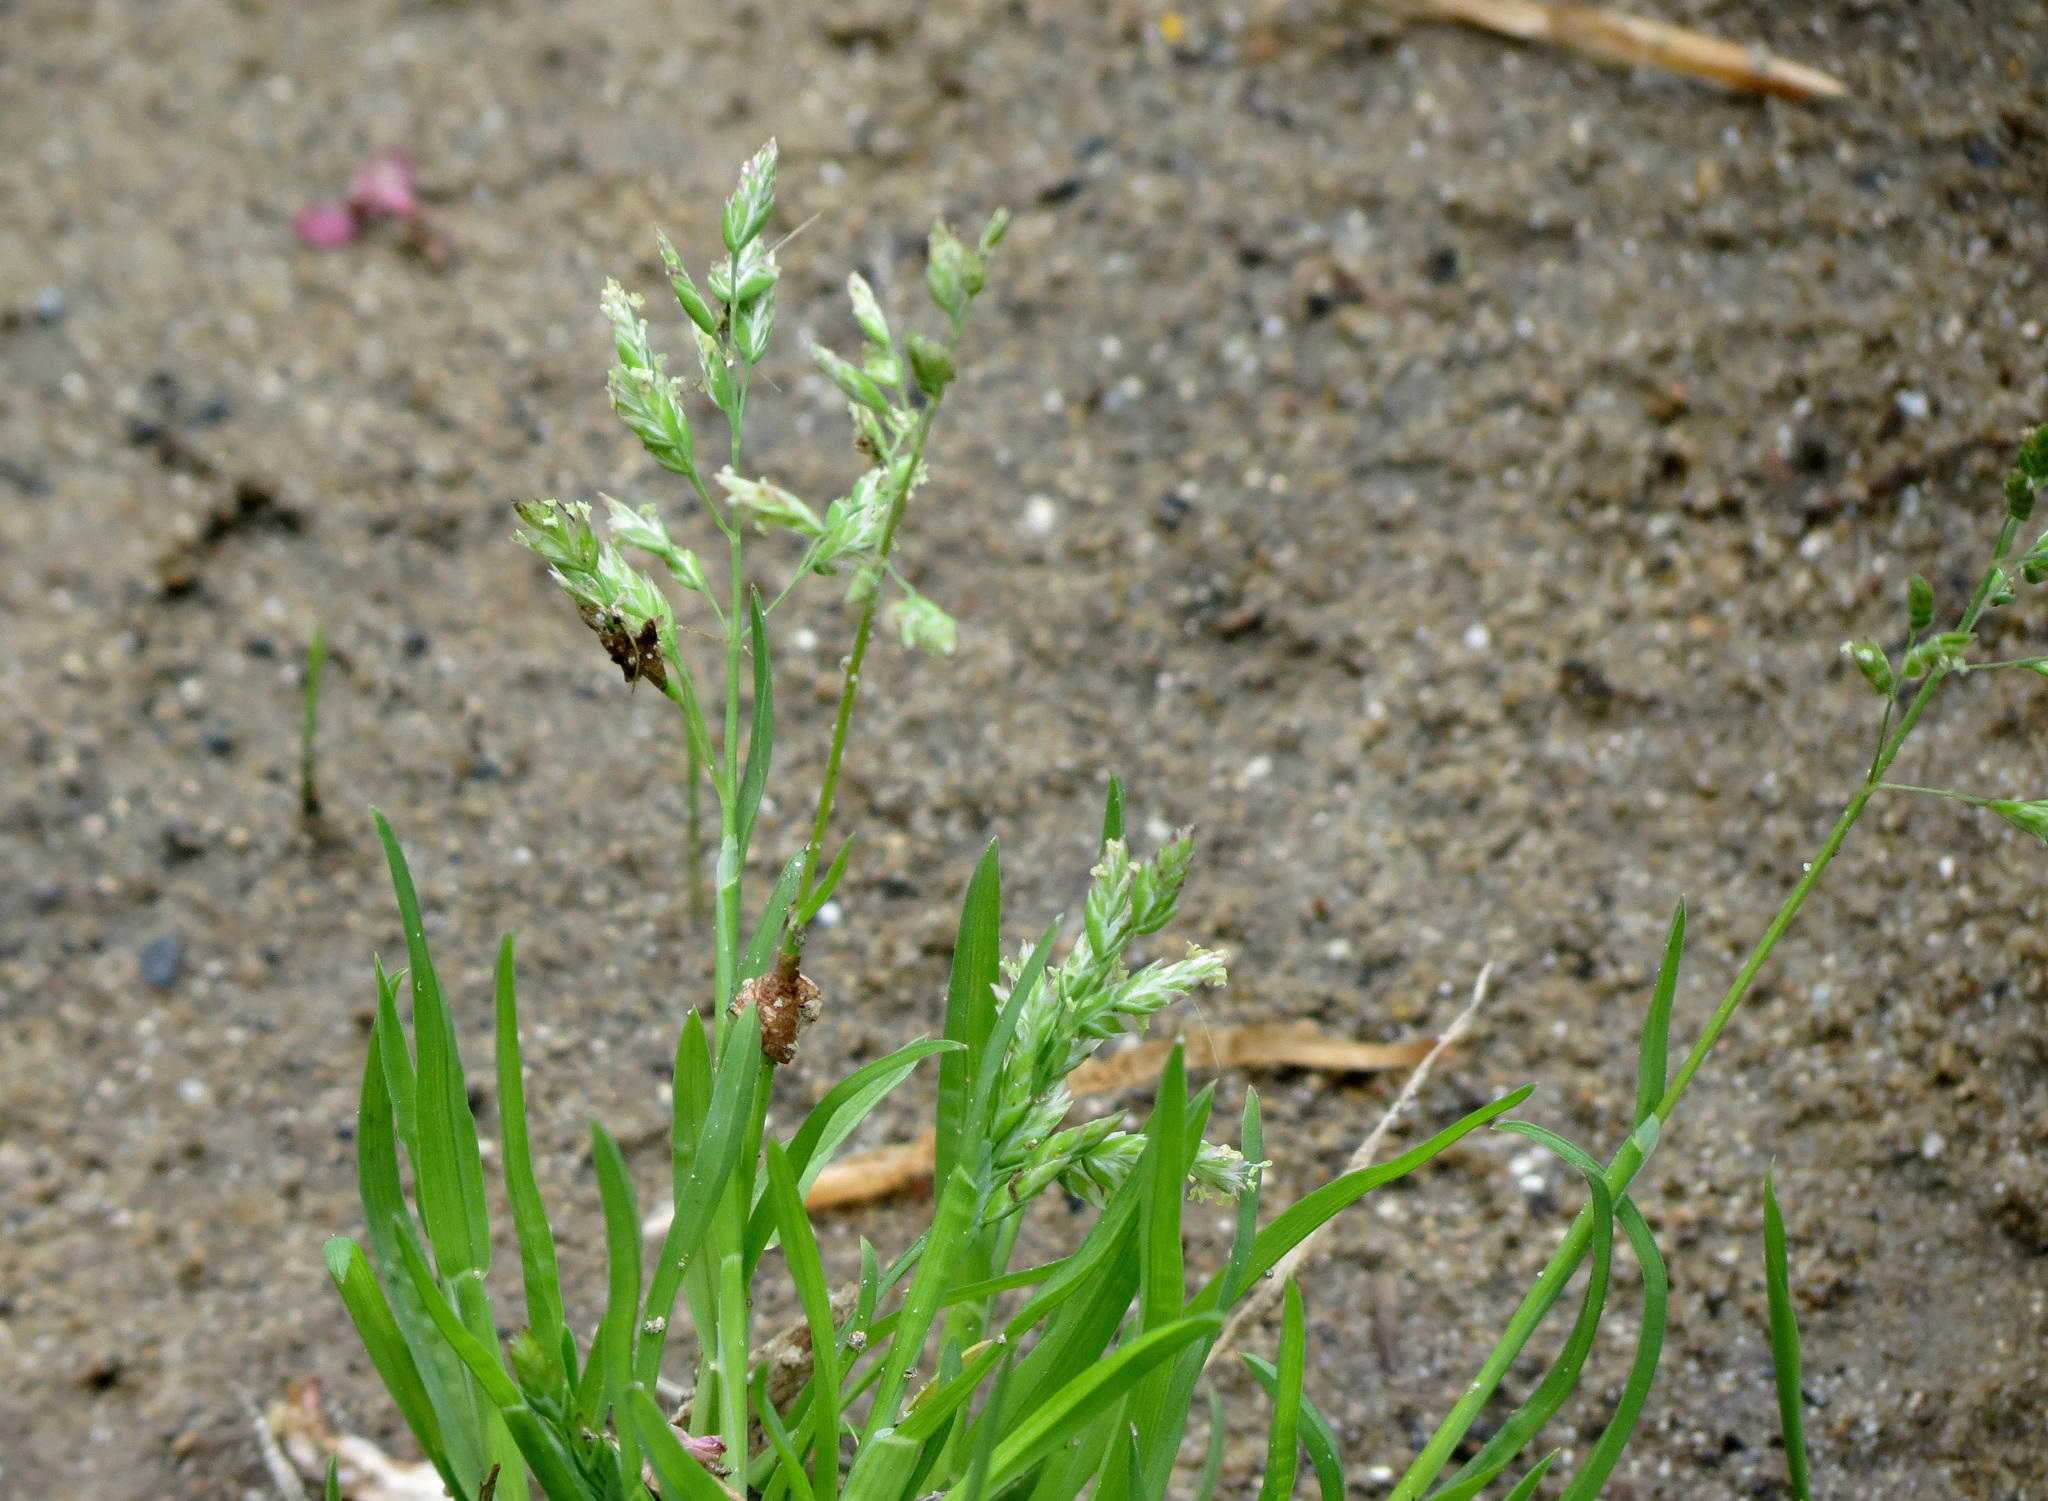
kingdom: Plantae
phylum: Tracheophyta
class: Liliopsida
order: Poales
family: Poaceae
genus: Poa
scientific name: Poa annua
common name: Annual bluegrass
